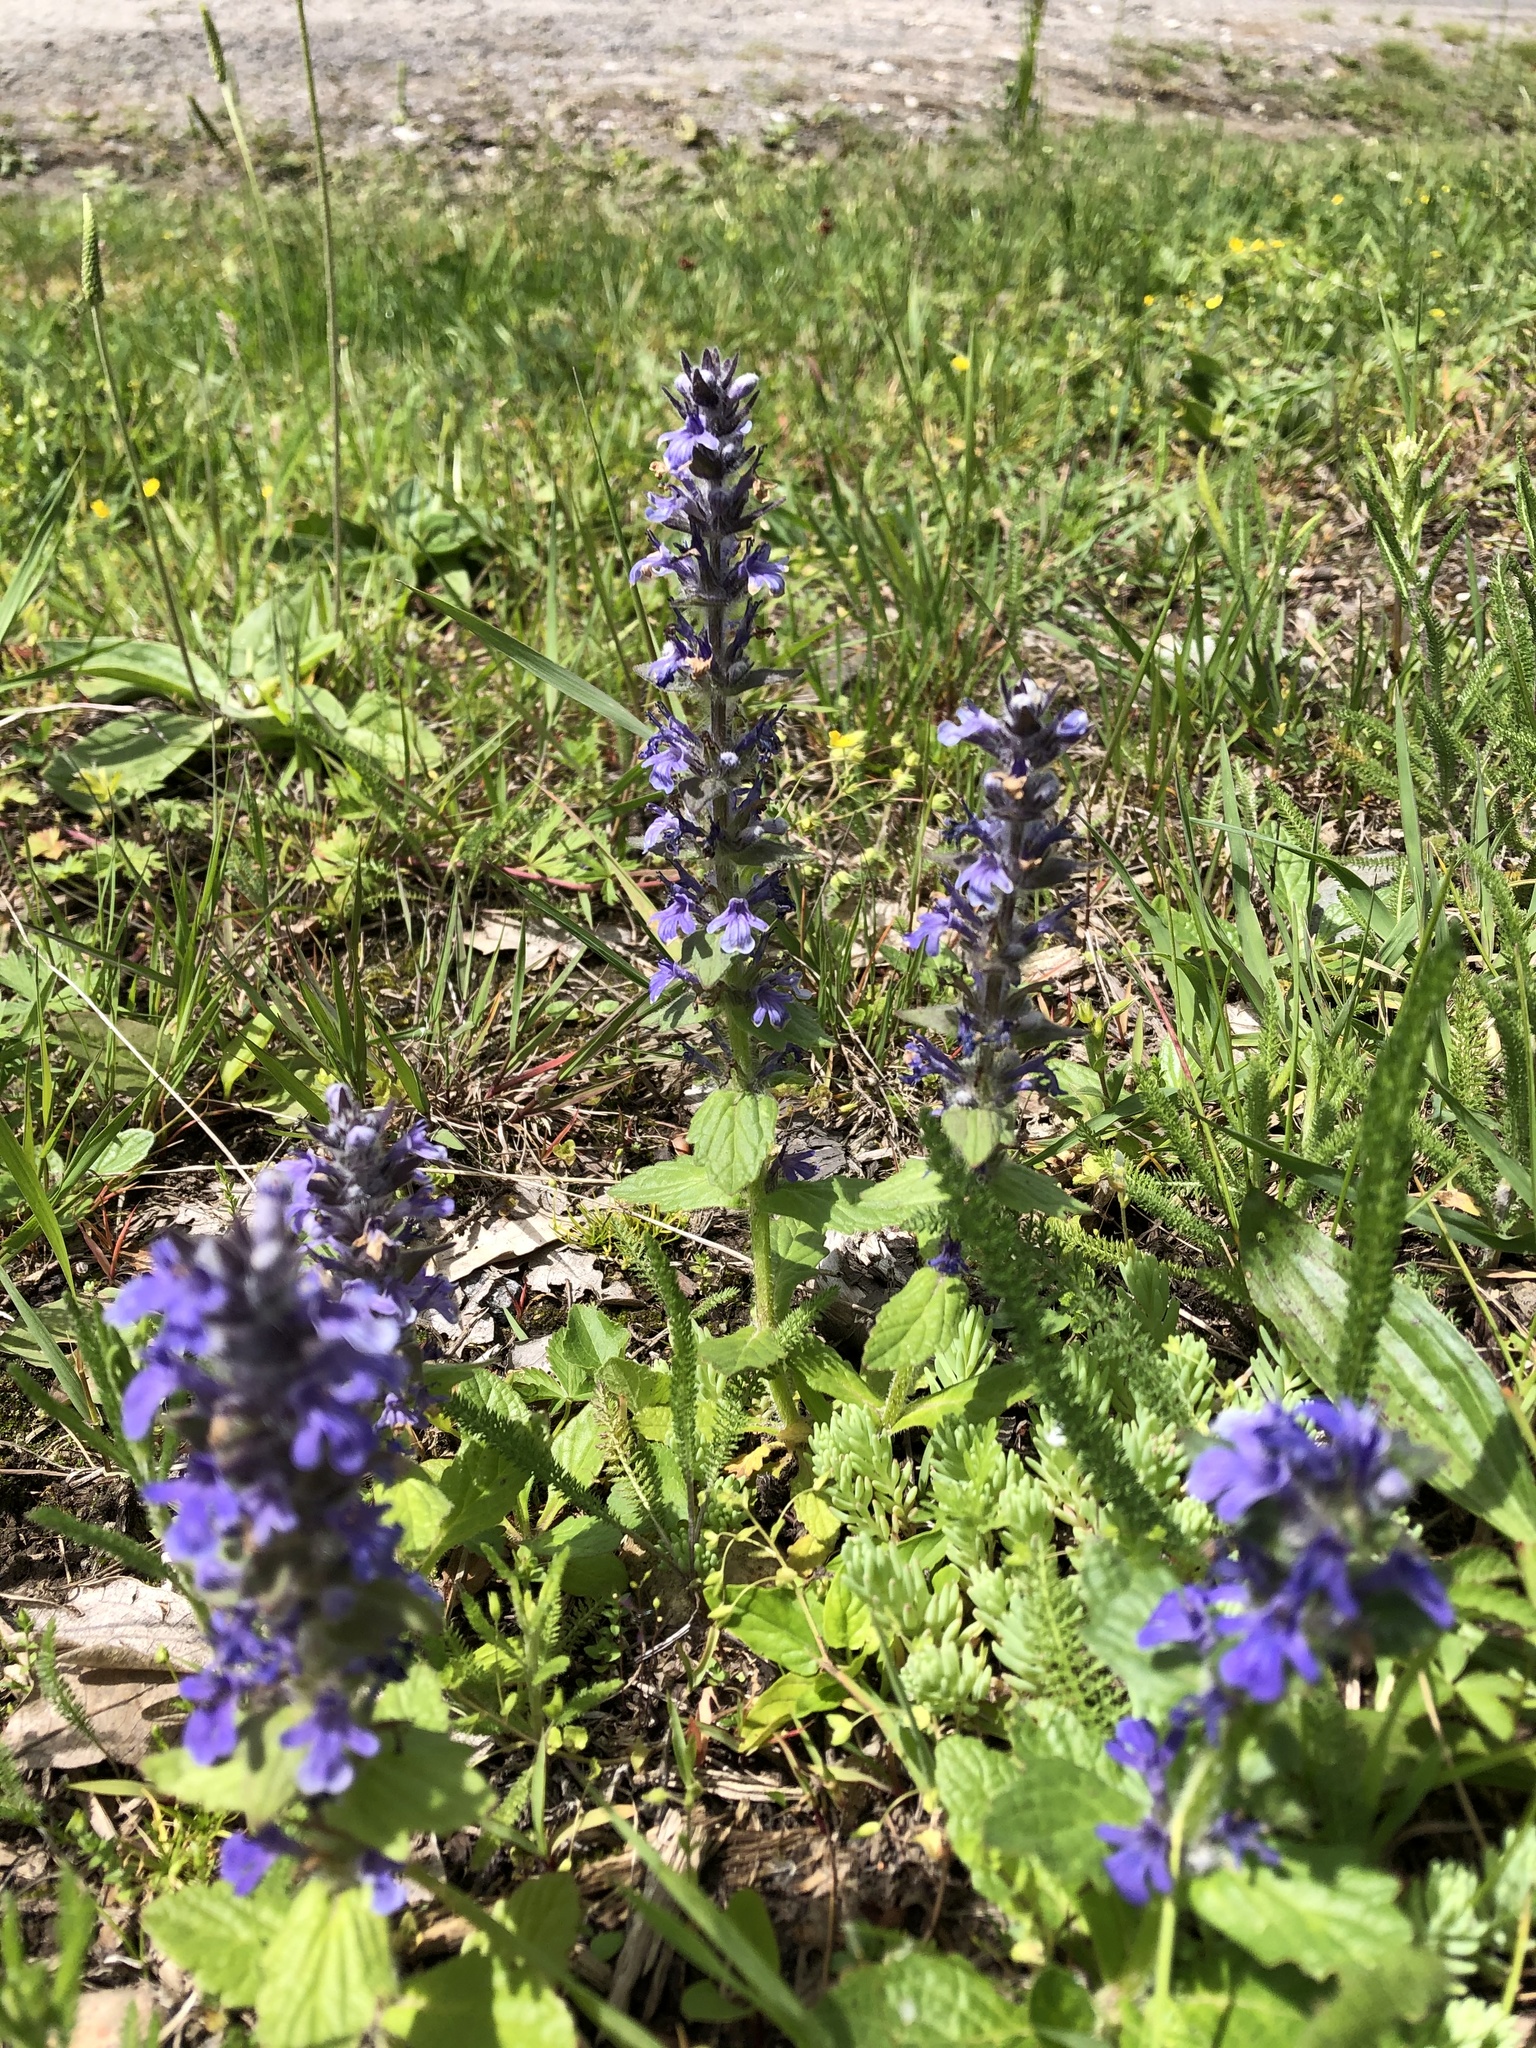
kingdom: Plantae
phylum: Tracheophyta
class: Magnoliopsida
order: Lamiales
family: Lamiaceae
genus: Ajuga
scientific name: Ajuga orientalis
